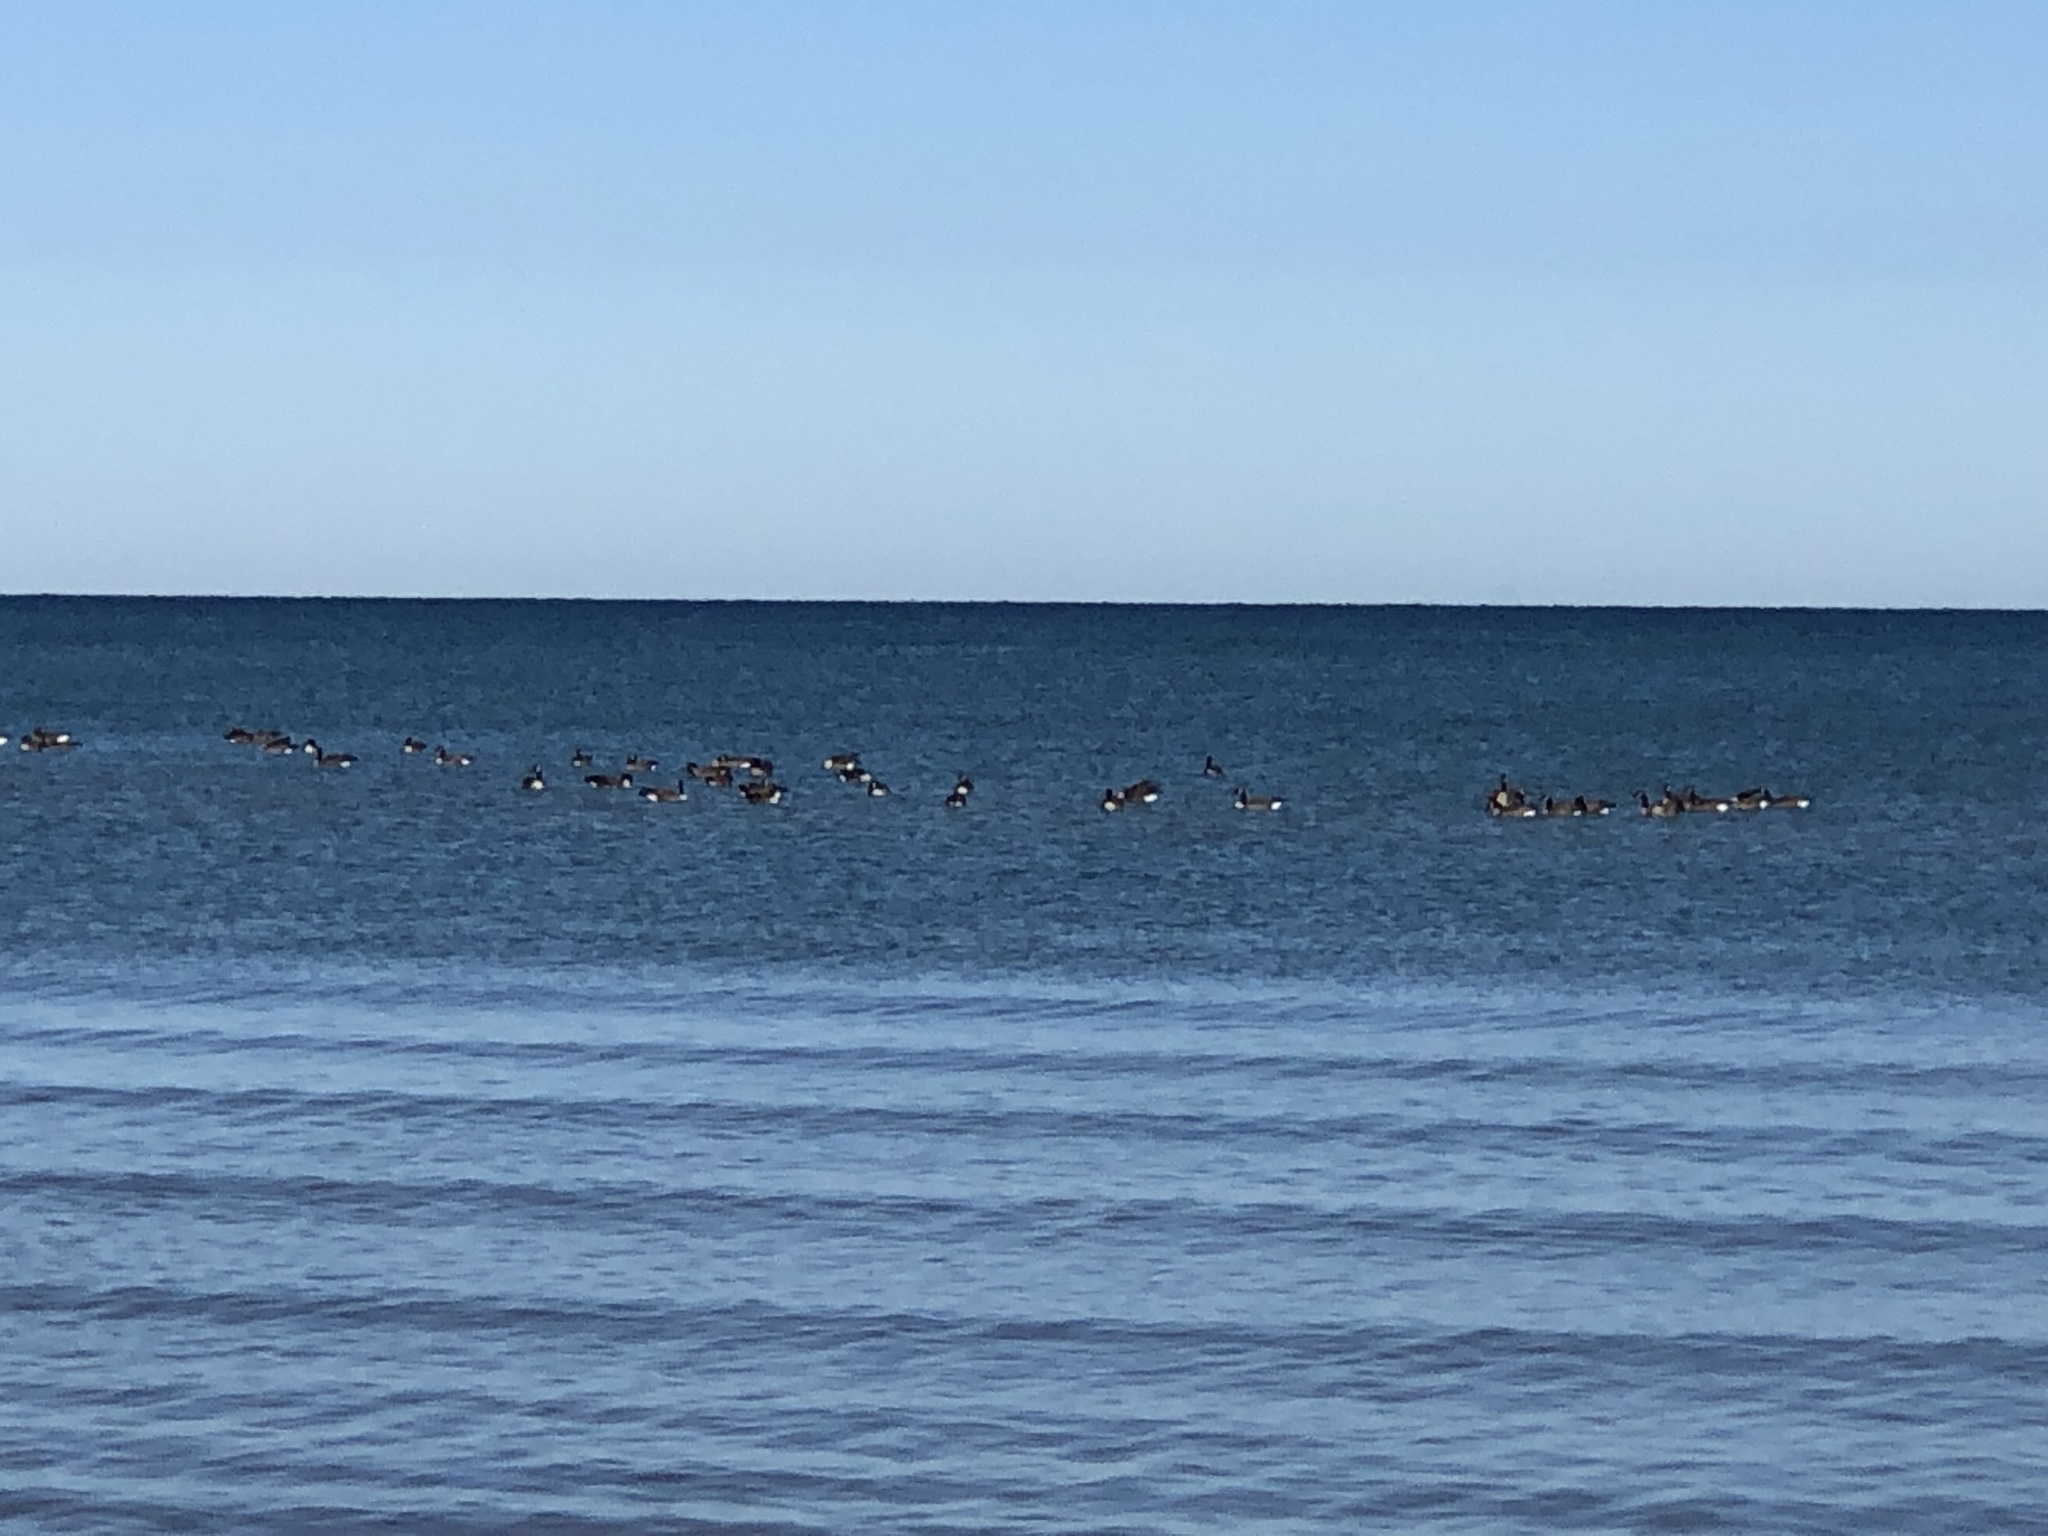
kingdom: Animalia
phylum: Chordata
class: Aves
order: Anseriformes
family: Anatidae
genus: Branta
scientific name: Branta canadensis
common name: Canada goose
